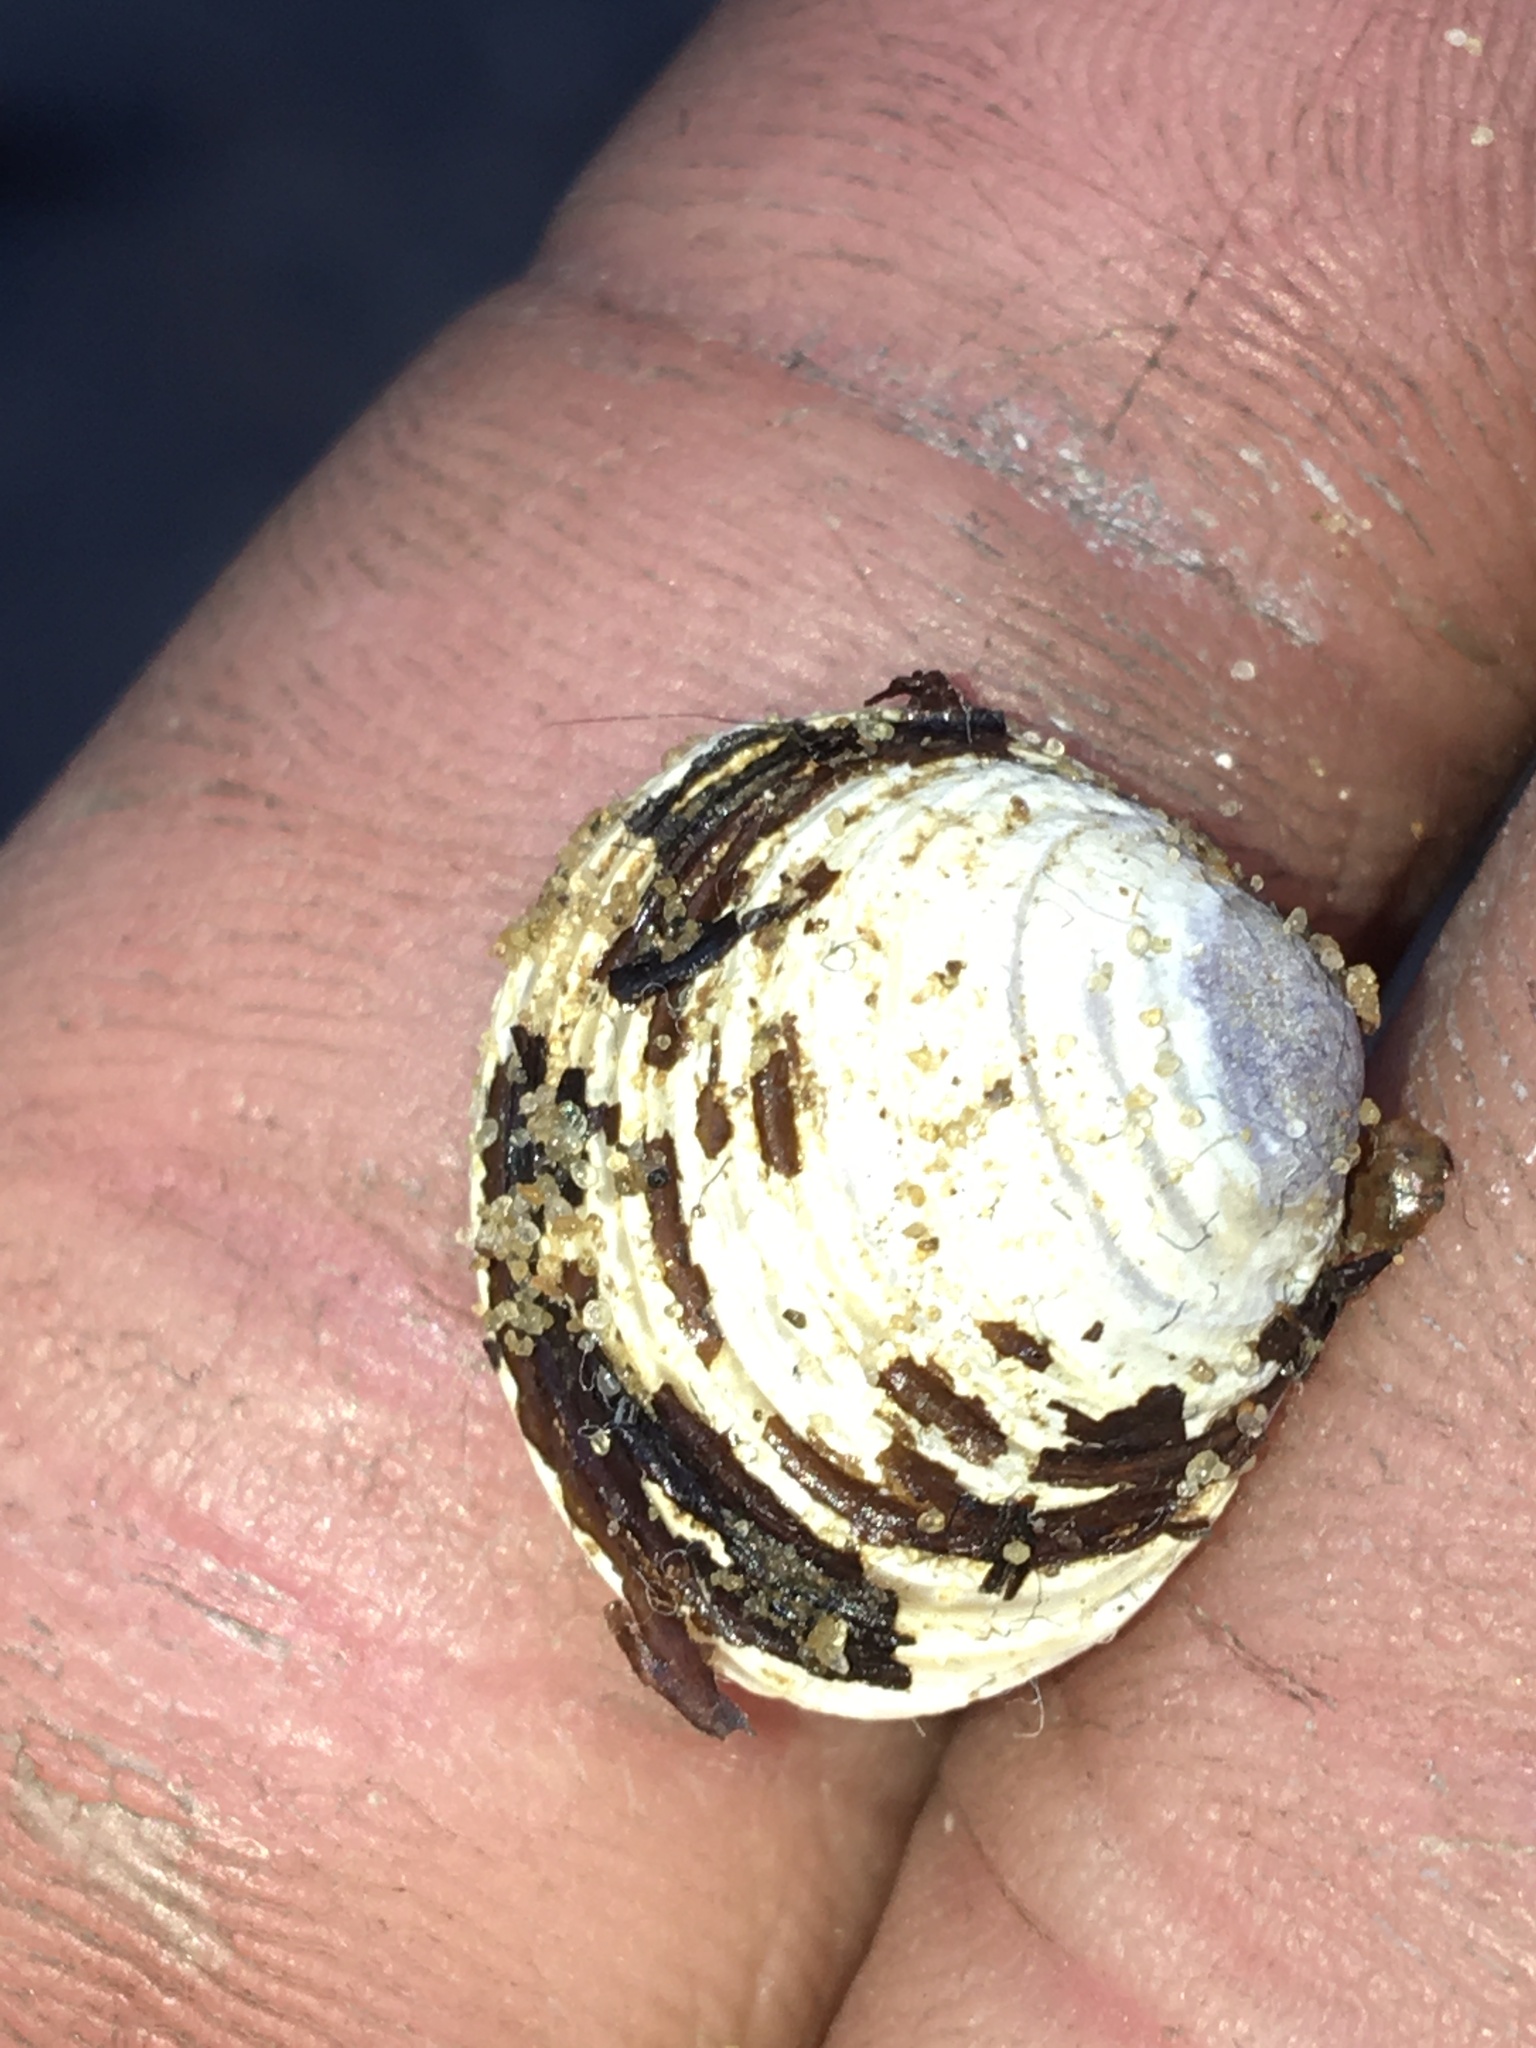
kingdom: Animalia
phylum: Mollusca
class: Bivalvia
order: Venerida
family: Cyrenidae
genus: Corbicula
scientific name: Corbicula fluminea
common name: Asian clam
